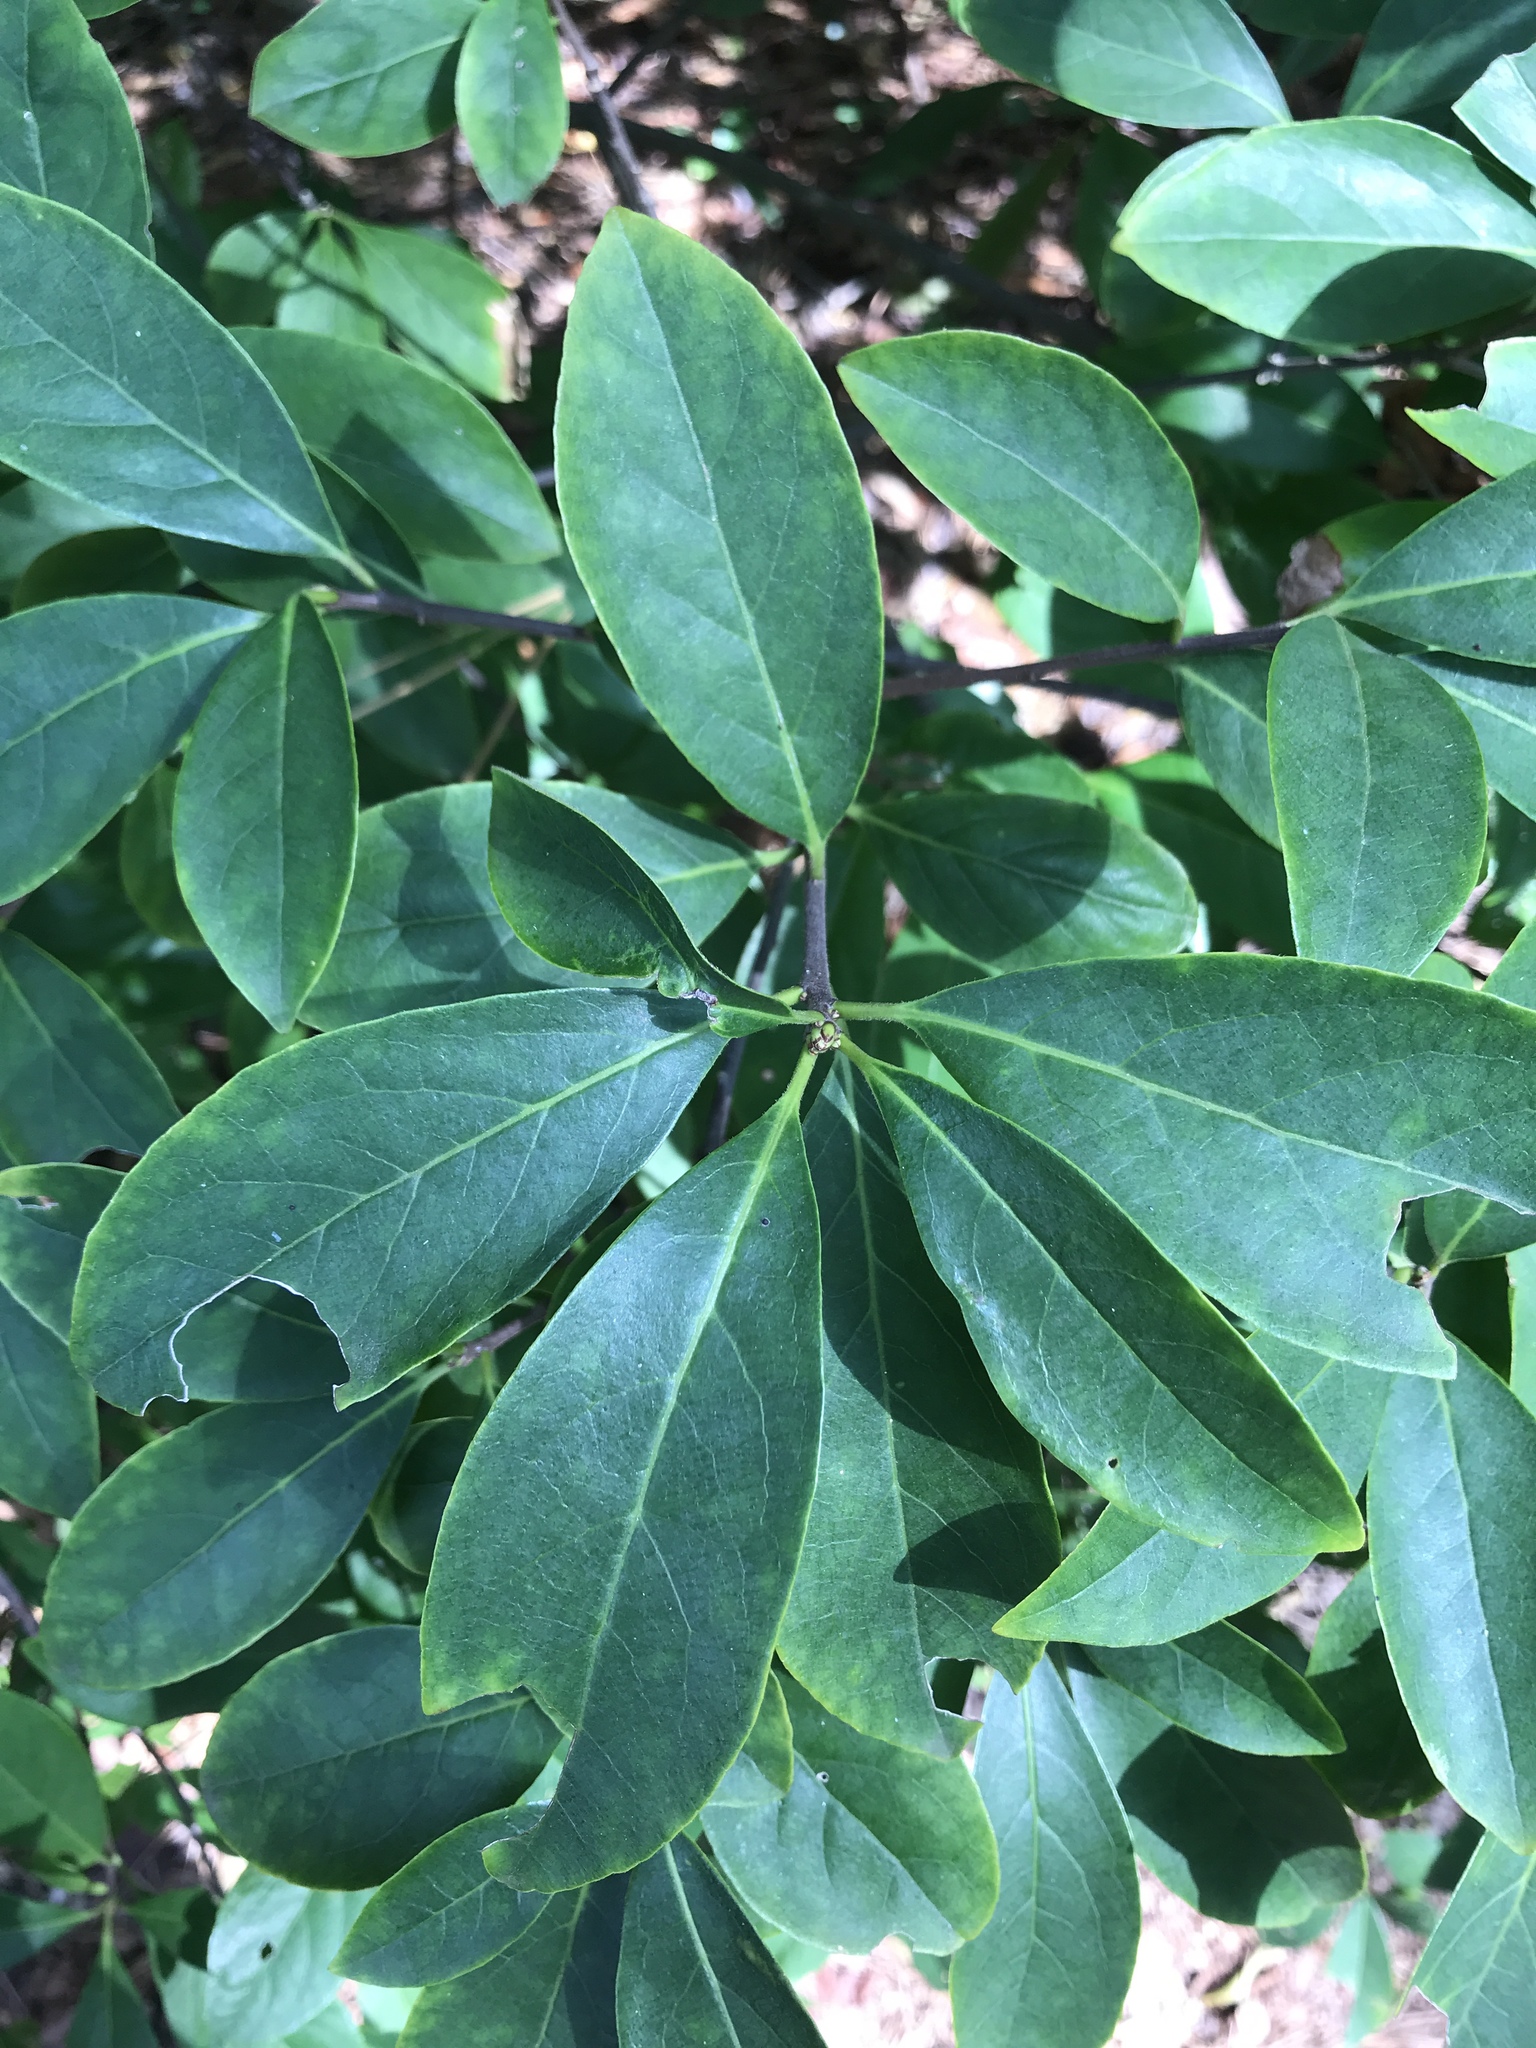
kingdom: Plantae
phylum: Tracheophyta
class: Magnoliopsida
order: Ericales
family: Symplocaceae
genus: Symplocos
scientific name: Symplocos tinctoria
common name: Horse-sugar
